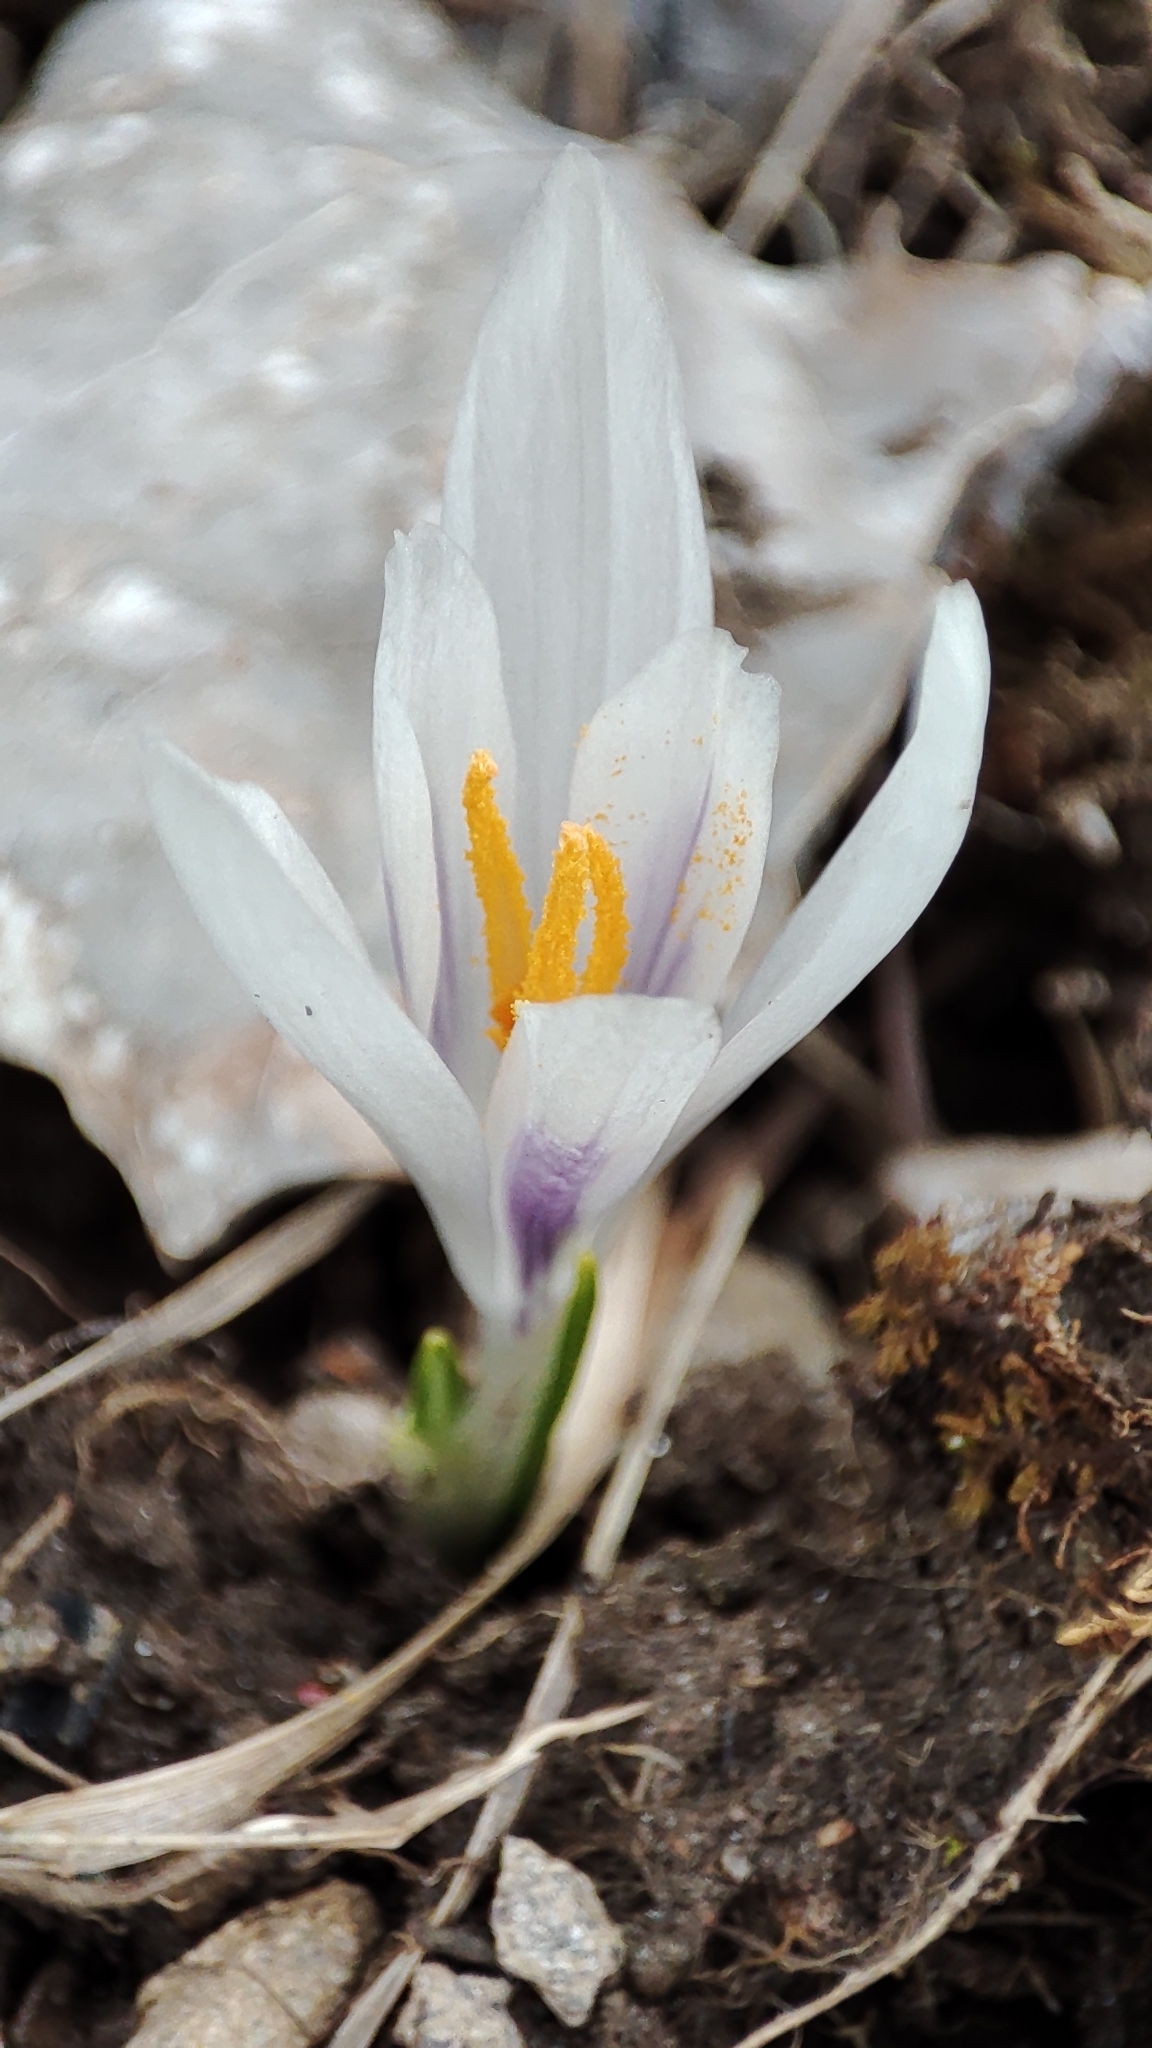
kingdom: Plantae
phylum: Tracheophyta
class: Liliopsida
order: Asparagales
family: Iridaceae
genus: Crocus
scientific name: Crocus vernus
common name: Spring crocus
